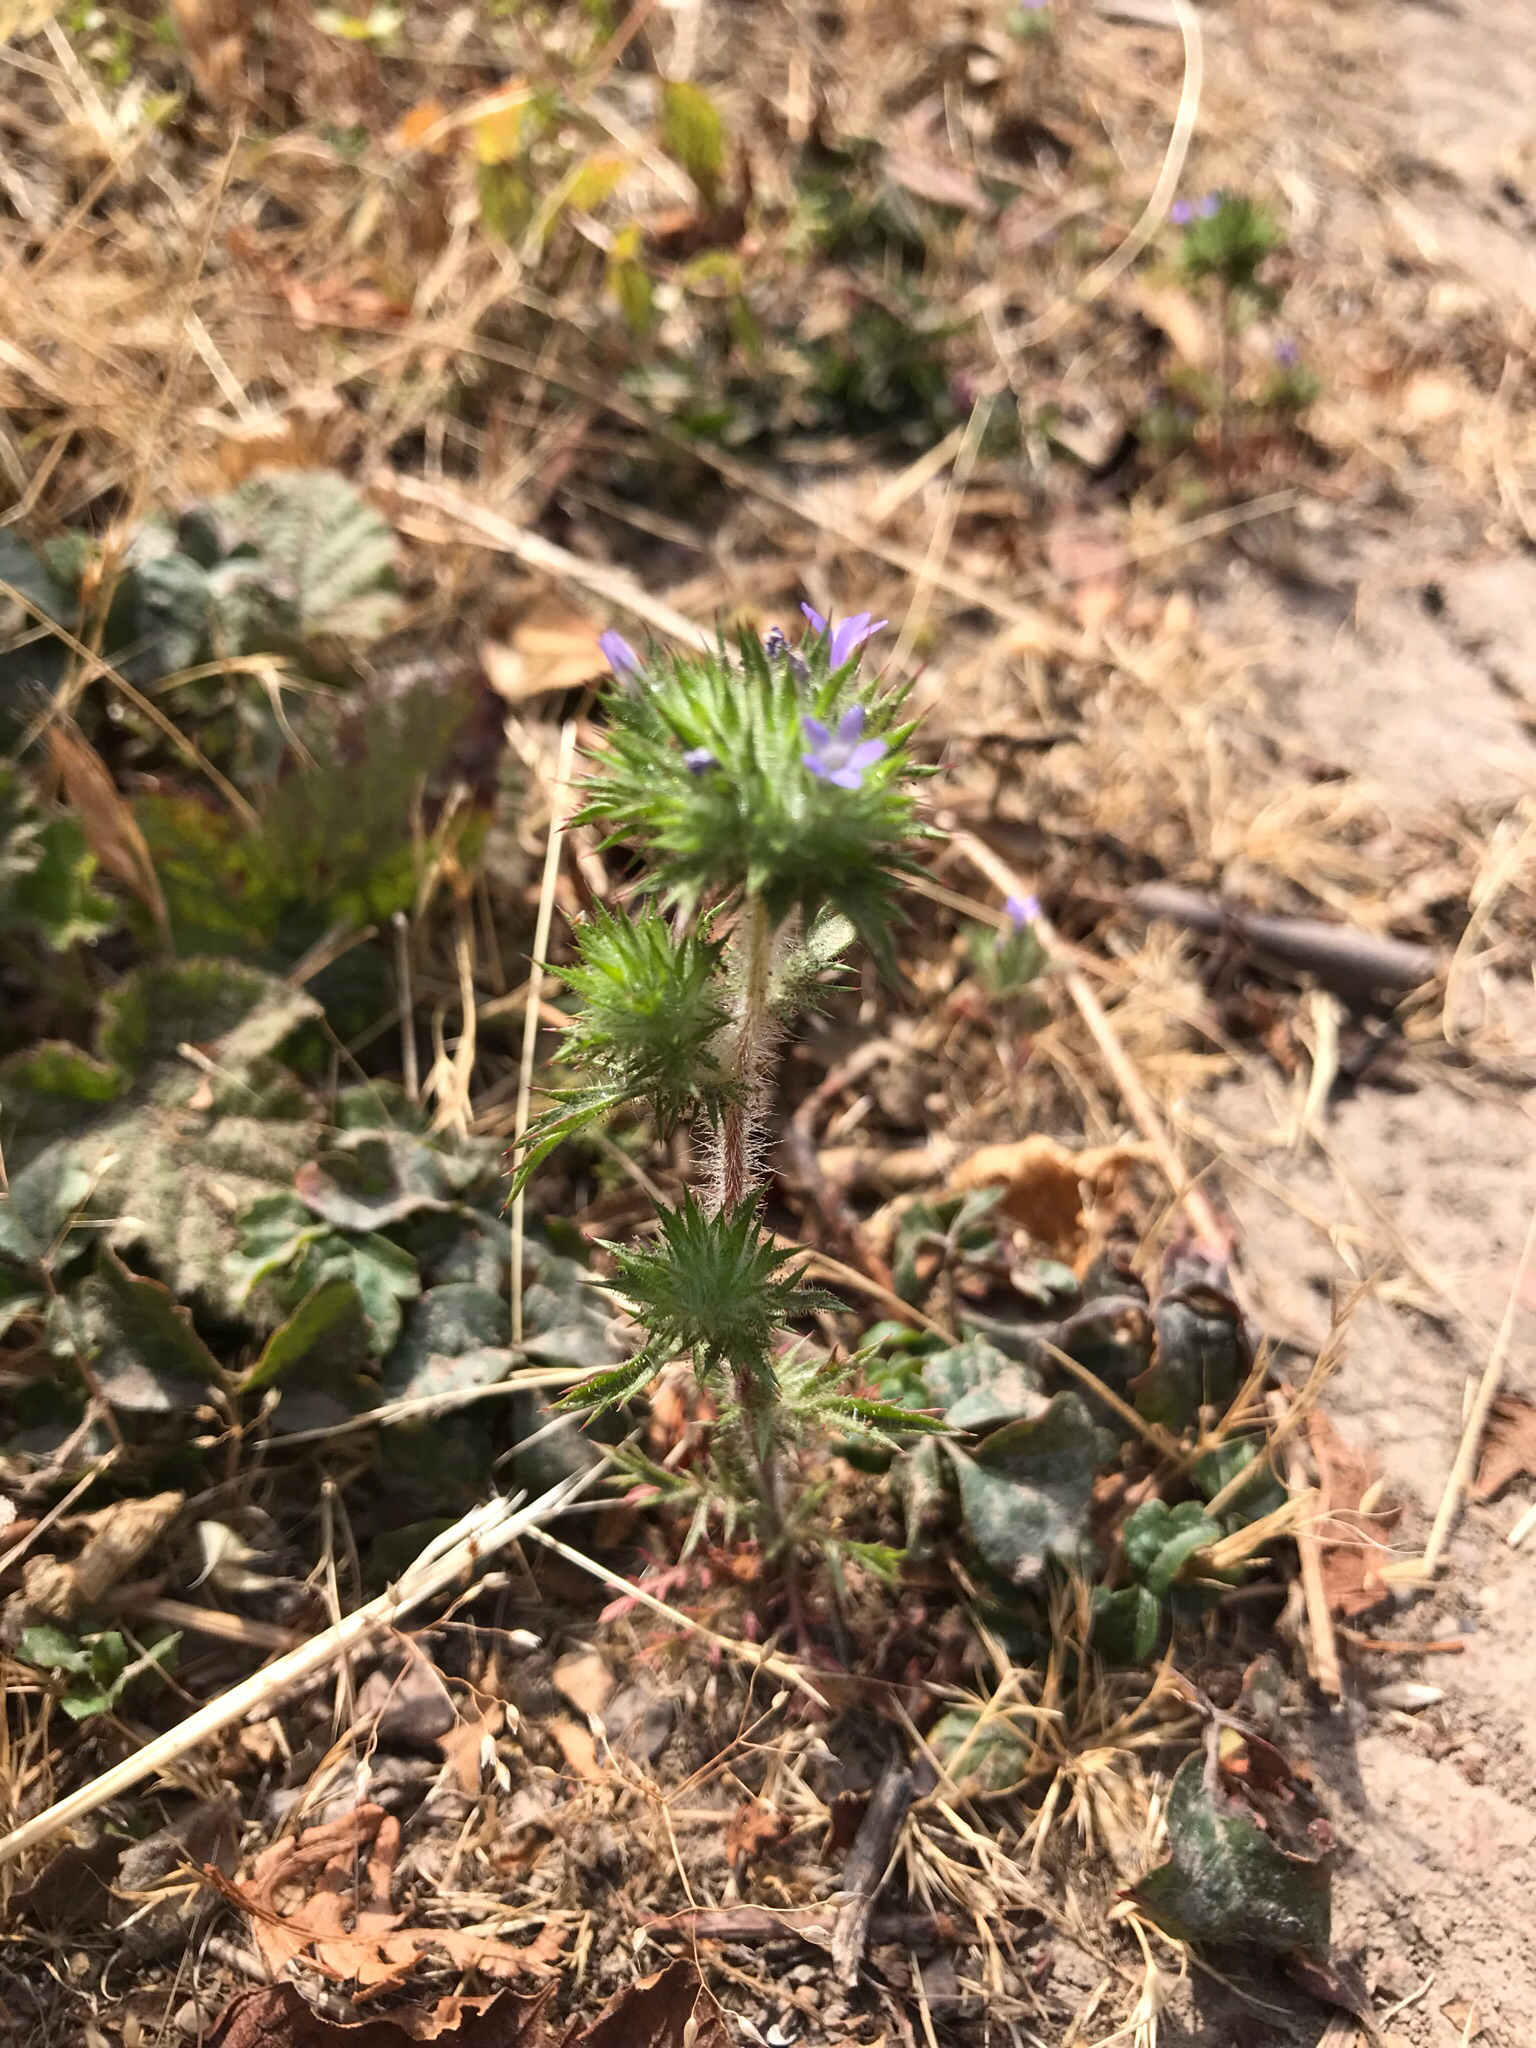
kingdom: Plantae
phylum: Tracheophyta
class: Magnoliopsida
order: Ericales
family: Polemoniaceae
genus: Navarretia
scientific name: Navarretia squarrosa
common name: Skunkweed
